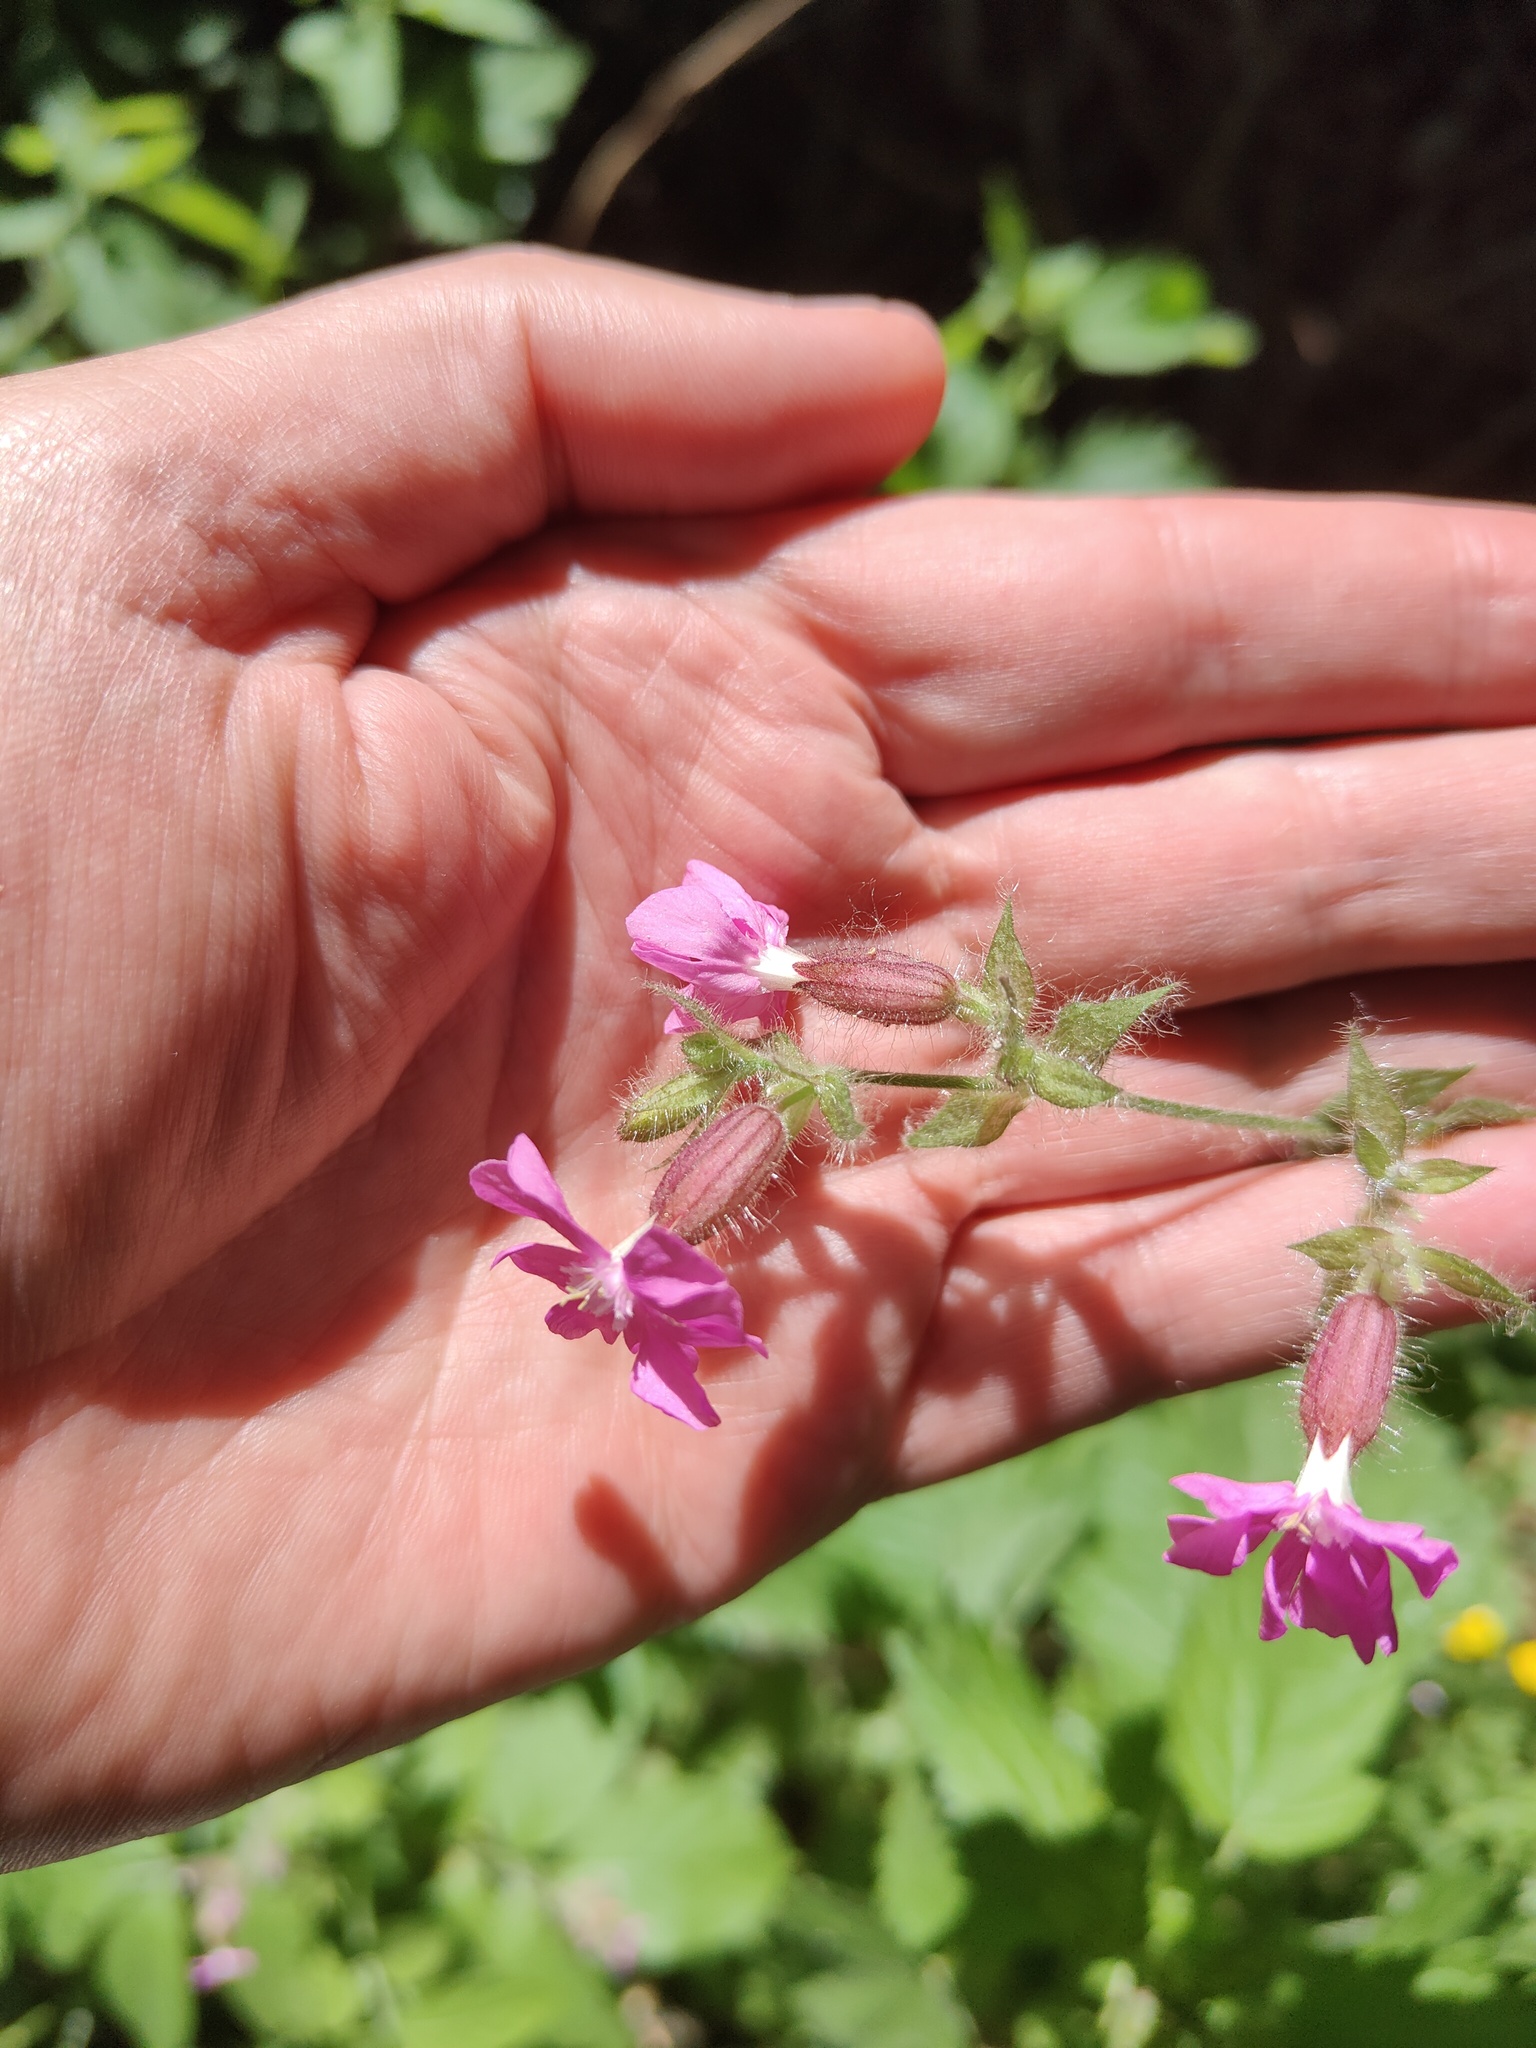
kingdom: Plantae
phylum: Tracheophyta
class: Magnoliopsida
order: Caryophyllales
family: Caryophyllaceae
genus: Silene
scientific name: Silene dioica
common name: Red campion
